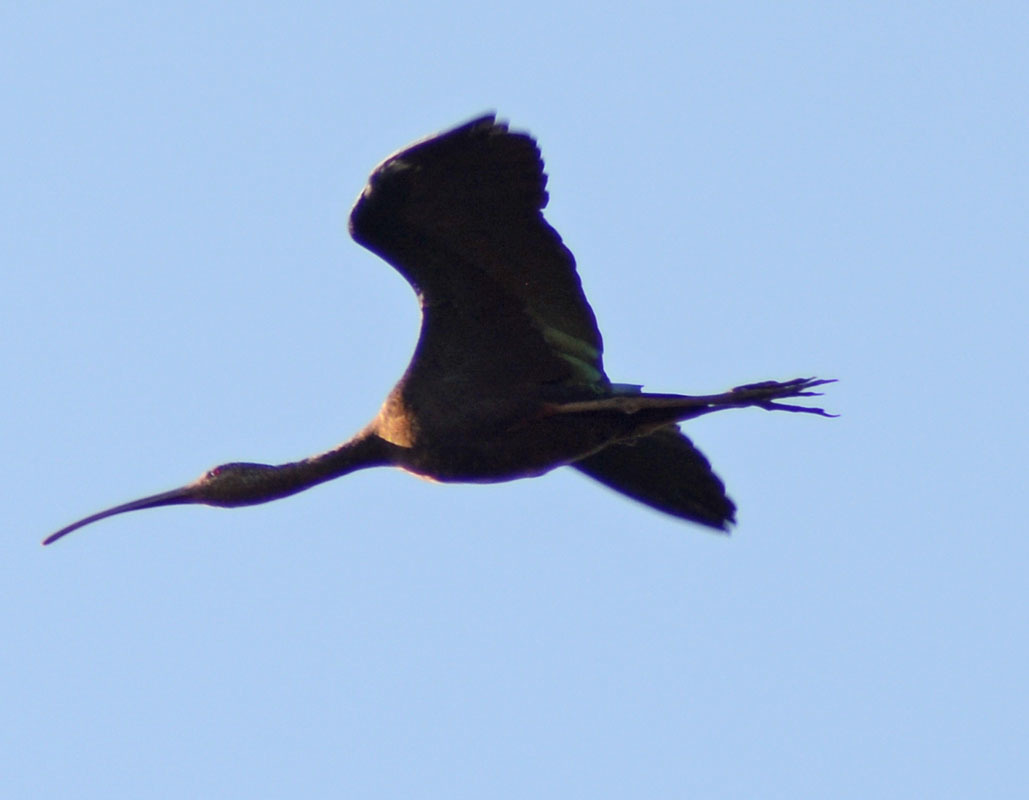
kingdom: Animalia
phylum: Chordata
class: Aves
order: Pelecaniformes
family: Threskiornithidae
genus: Plegadis
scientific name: Plegadis chihi
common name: White-faced ibis
